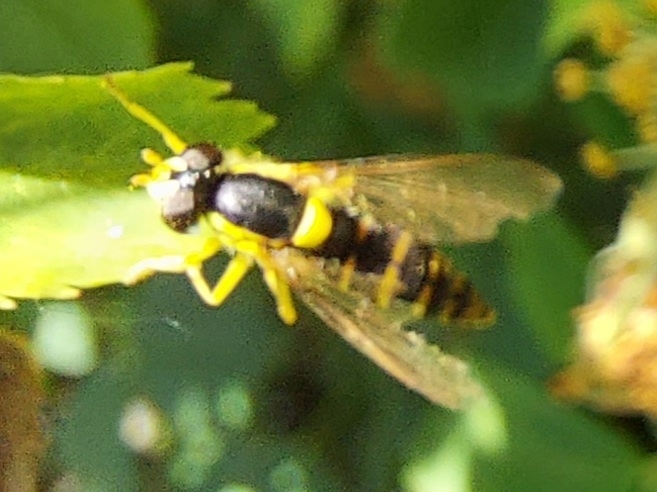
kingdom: Animalia
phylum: Arthropoda
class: Insecta
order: Diptera
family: Syrphidae
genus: Sphaerophoria
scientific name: Sphaerophoria
